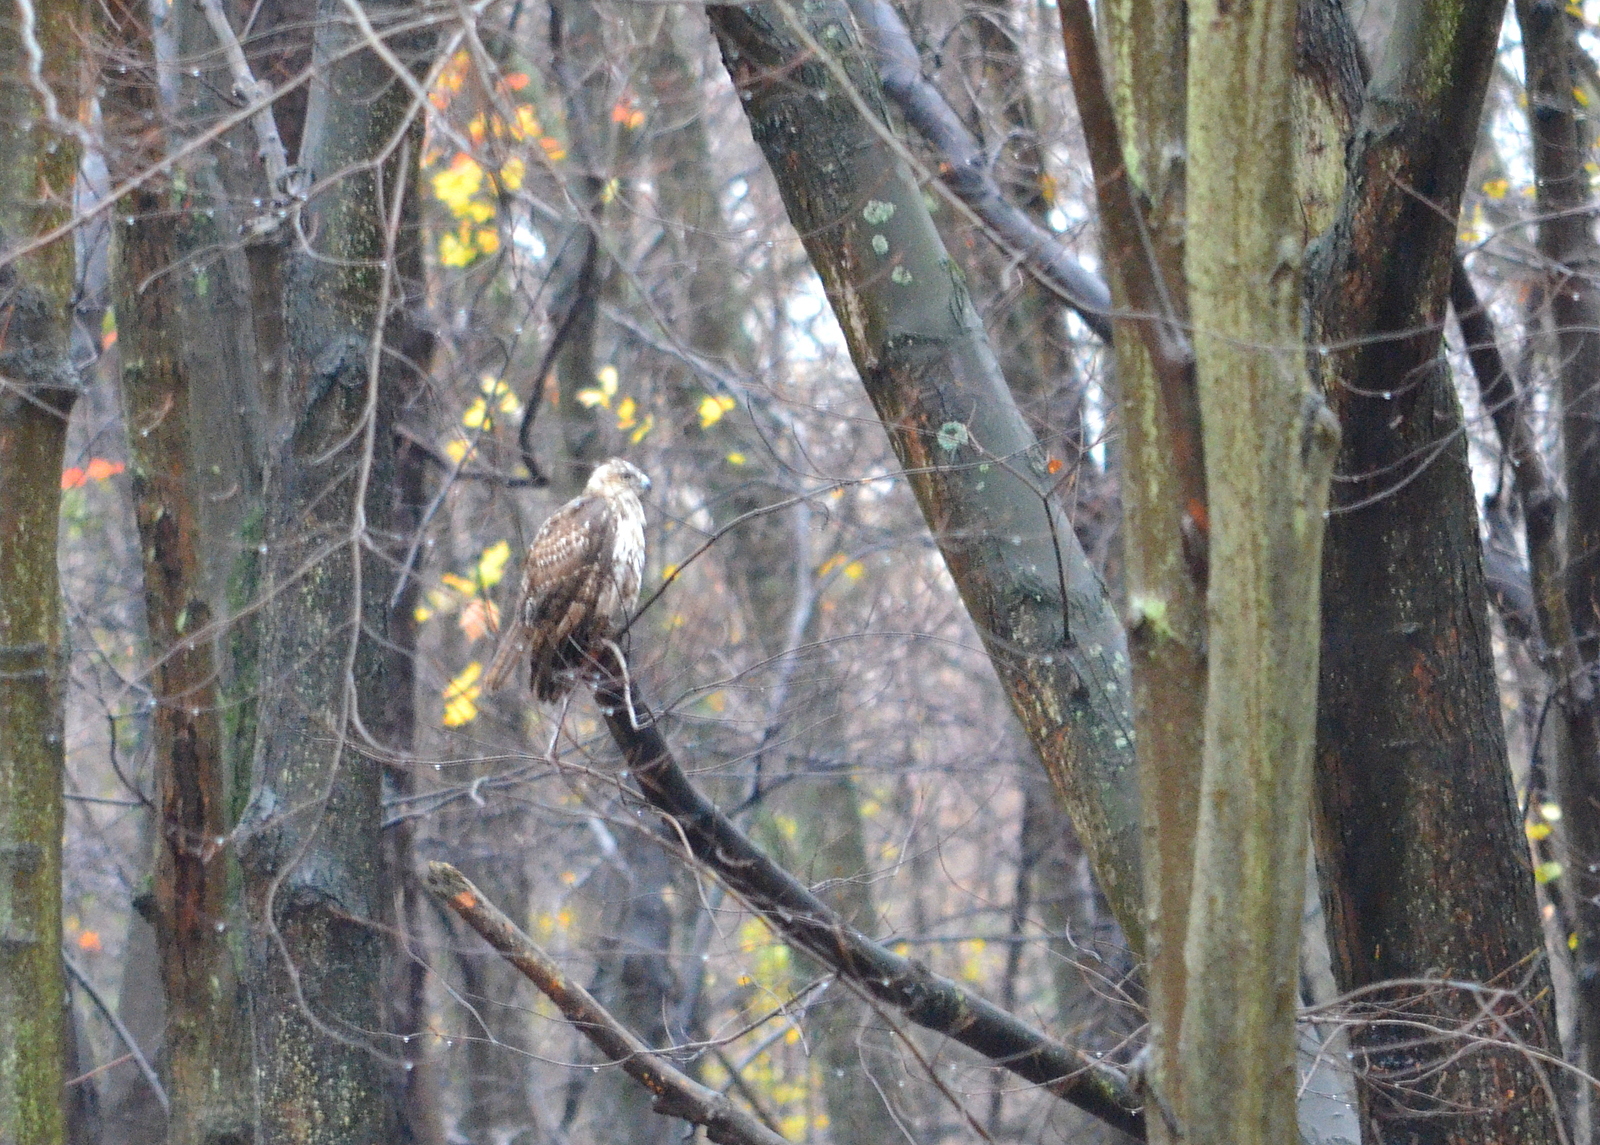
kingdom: Animalia
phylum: Chordata
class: Aves
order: Accipitriformes
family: Accipitridae
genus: Buteo
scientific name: Buteo jamaicensis
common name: Red-tailed hawk
